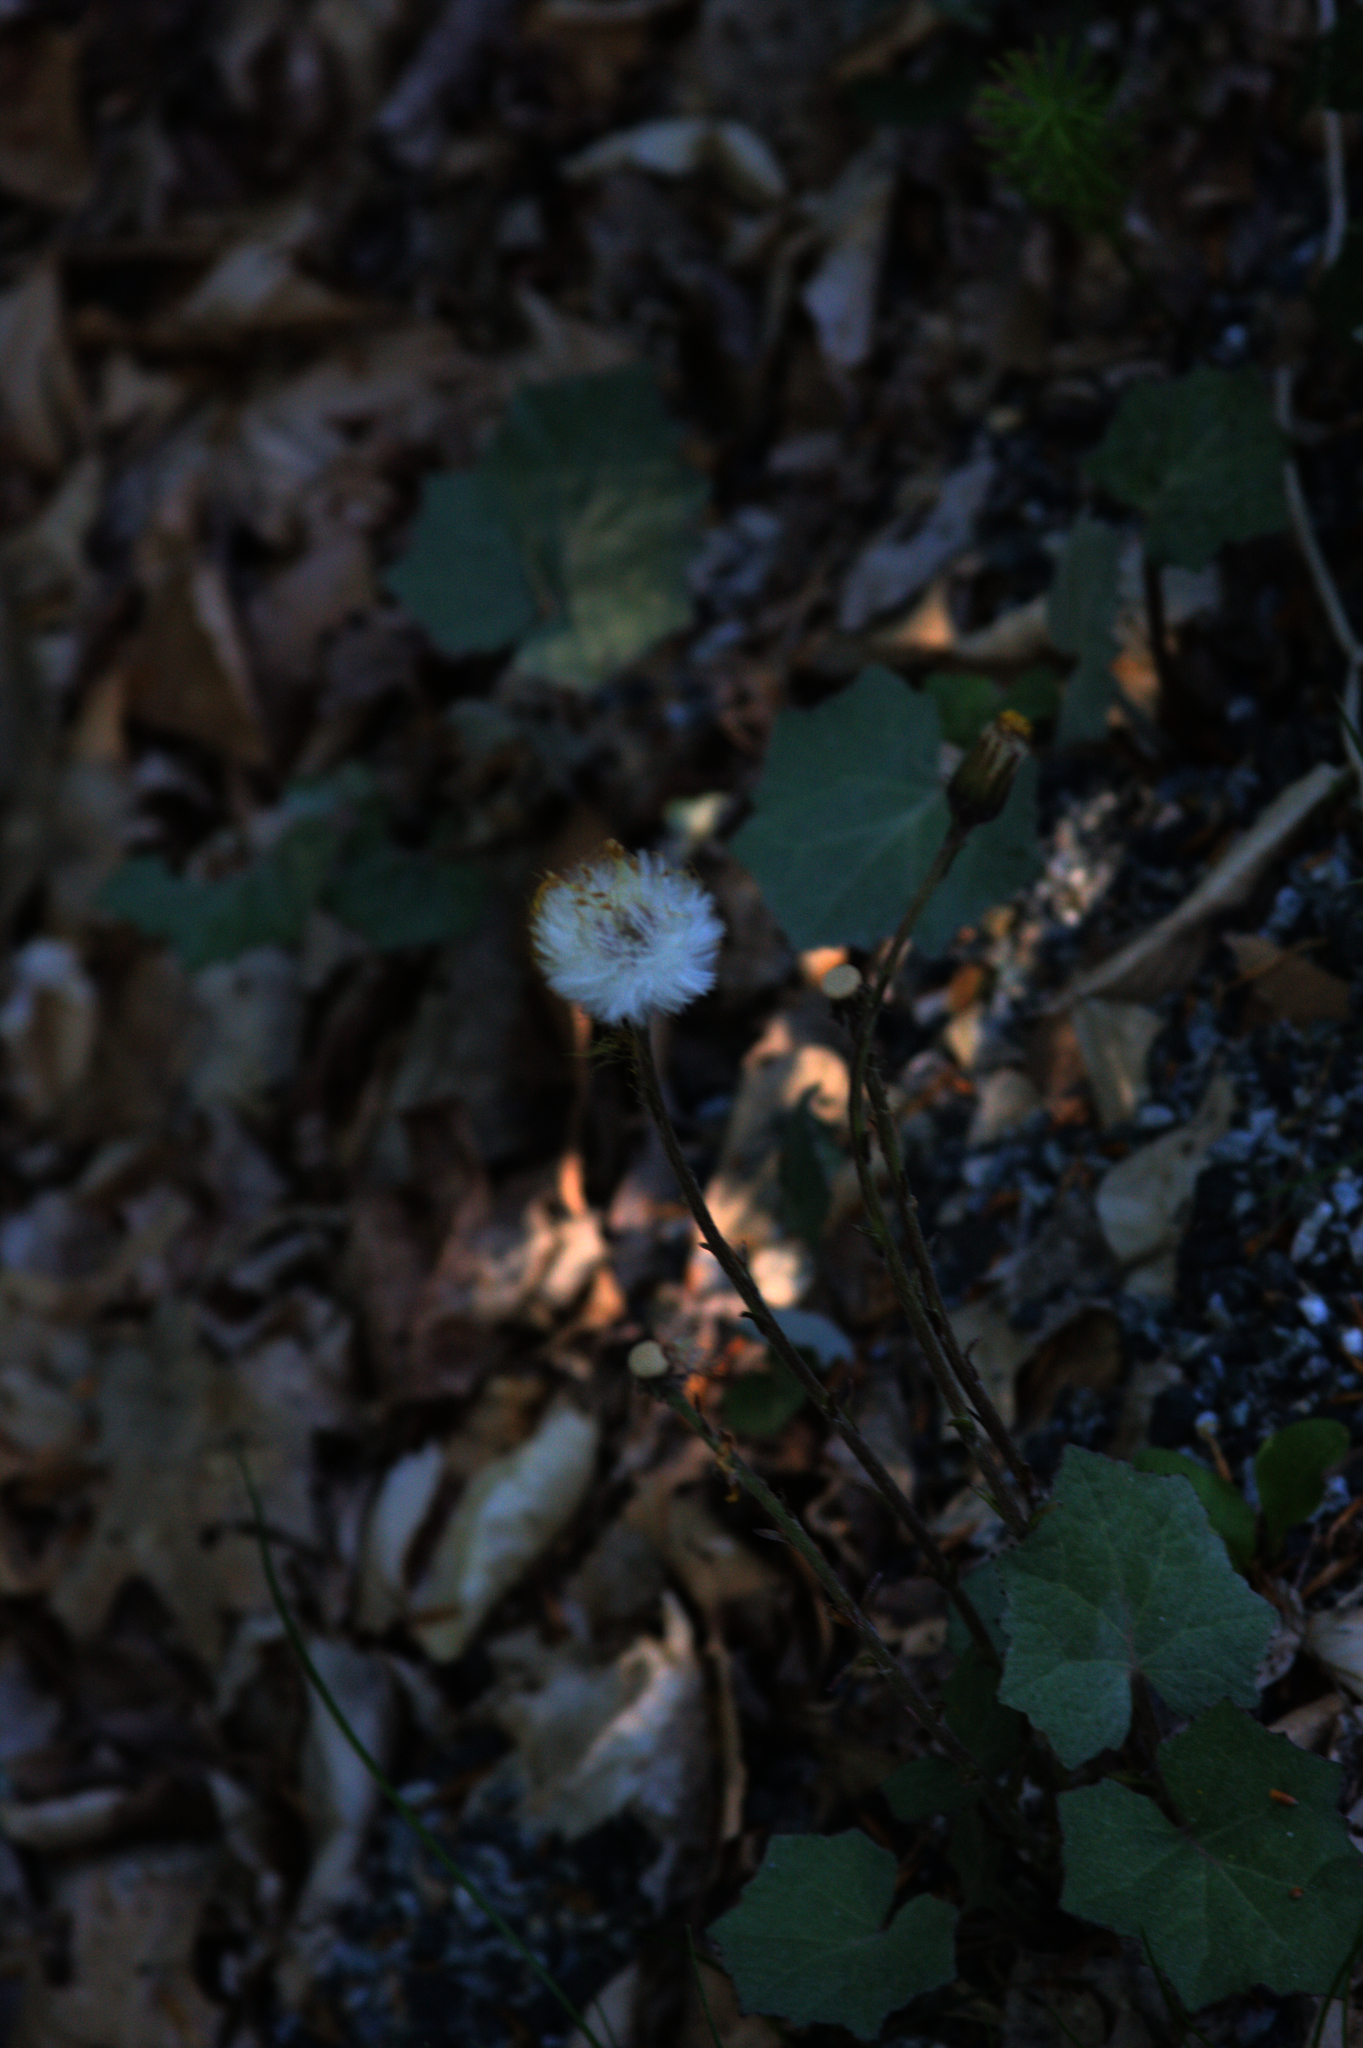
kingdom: Plantae
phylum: Tracheophyta
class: Magnoliopsida
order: Asterales
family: Asteraceae
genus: Tussilago
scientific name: Tussilago farfara
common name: Coltsfoot
